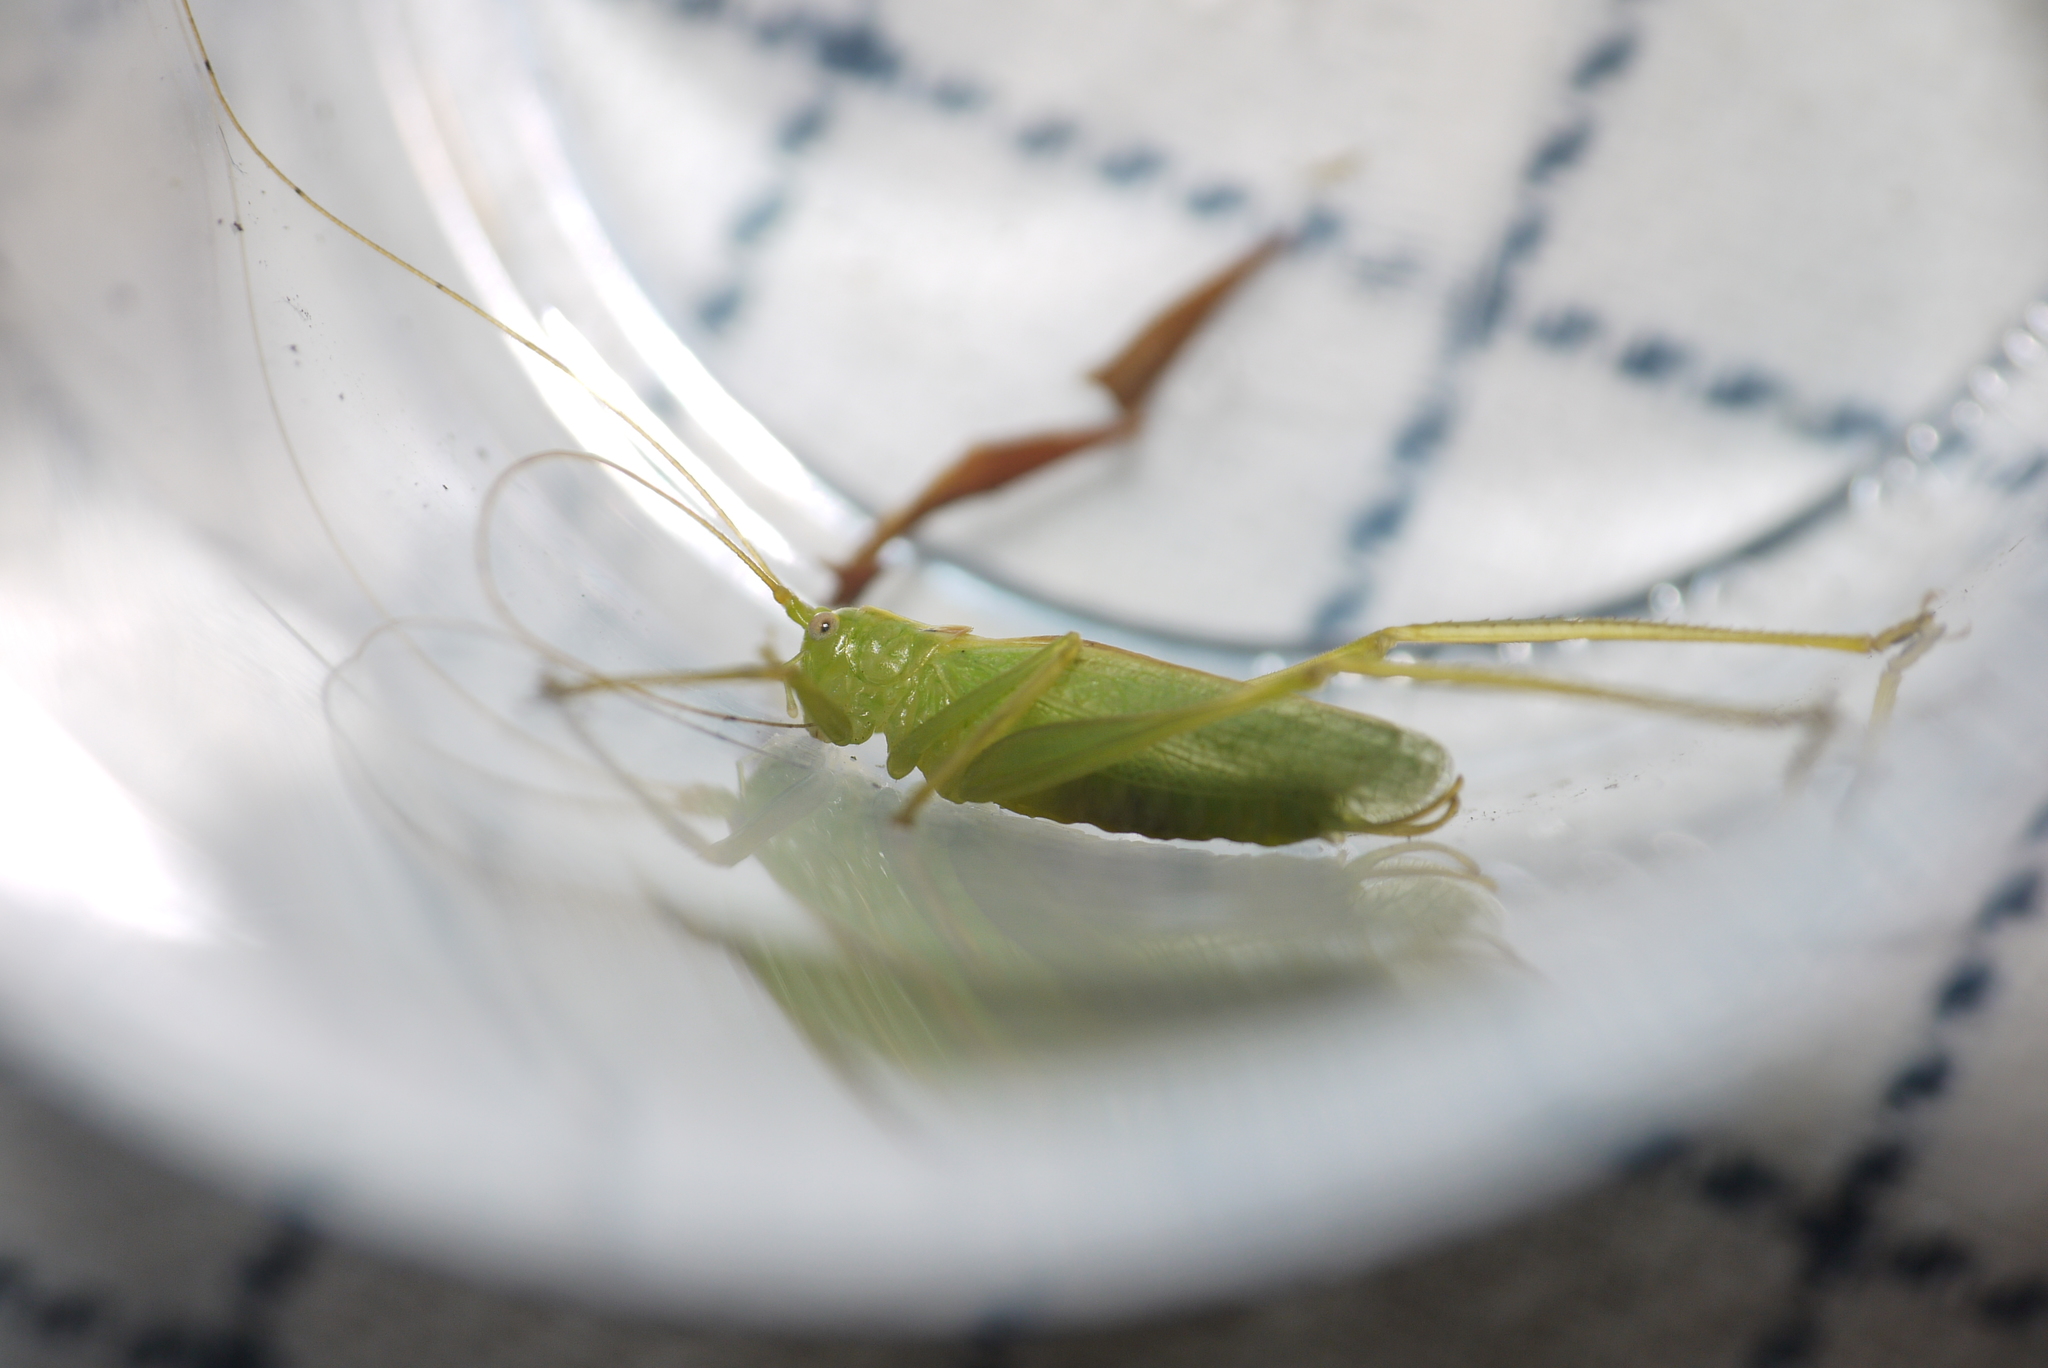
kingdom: Animalia
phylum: Arthropoda
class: Insecta
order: Orthoptera
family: Tettigoniidae
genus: Meconema
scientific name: Meconema thalassinum
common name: Oak bush-cricket
